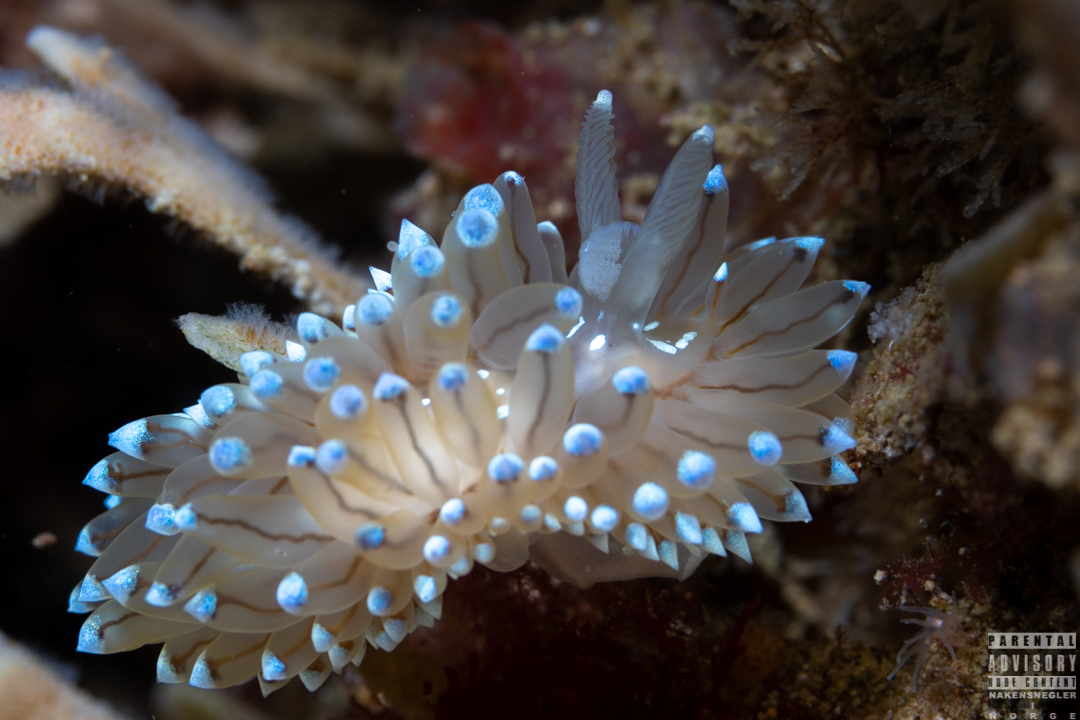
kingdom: Animalia
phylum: Mollusca
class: Gastropoda
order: Nudibranchia
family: Janolidae
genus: Antiopella
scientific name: Antiopella cristata
